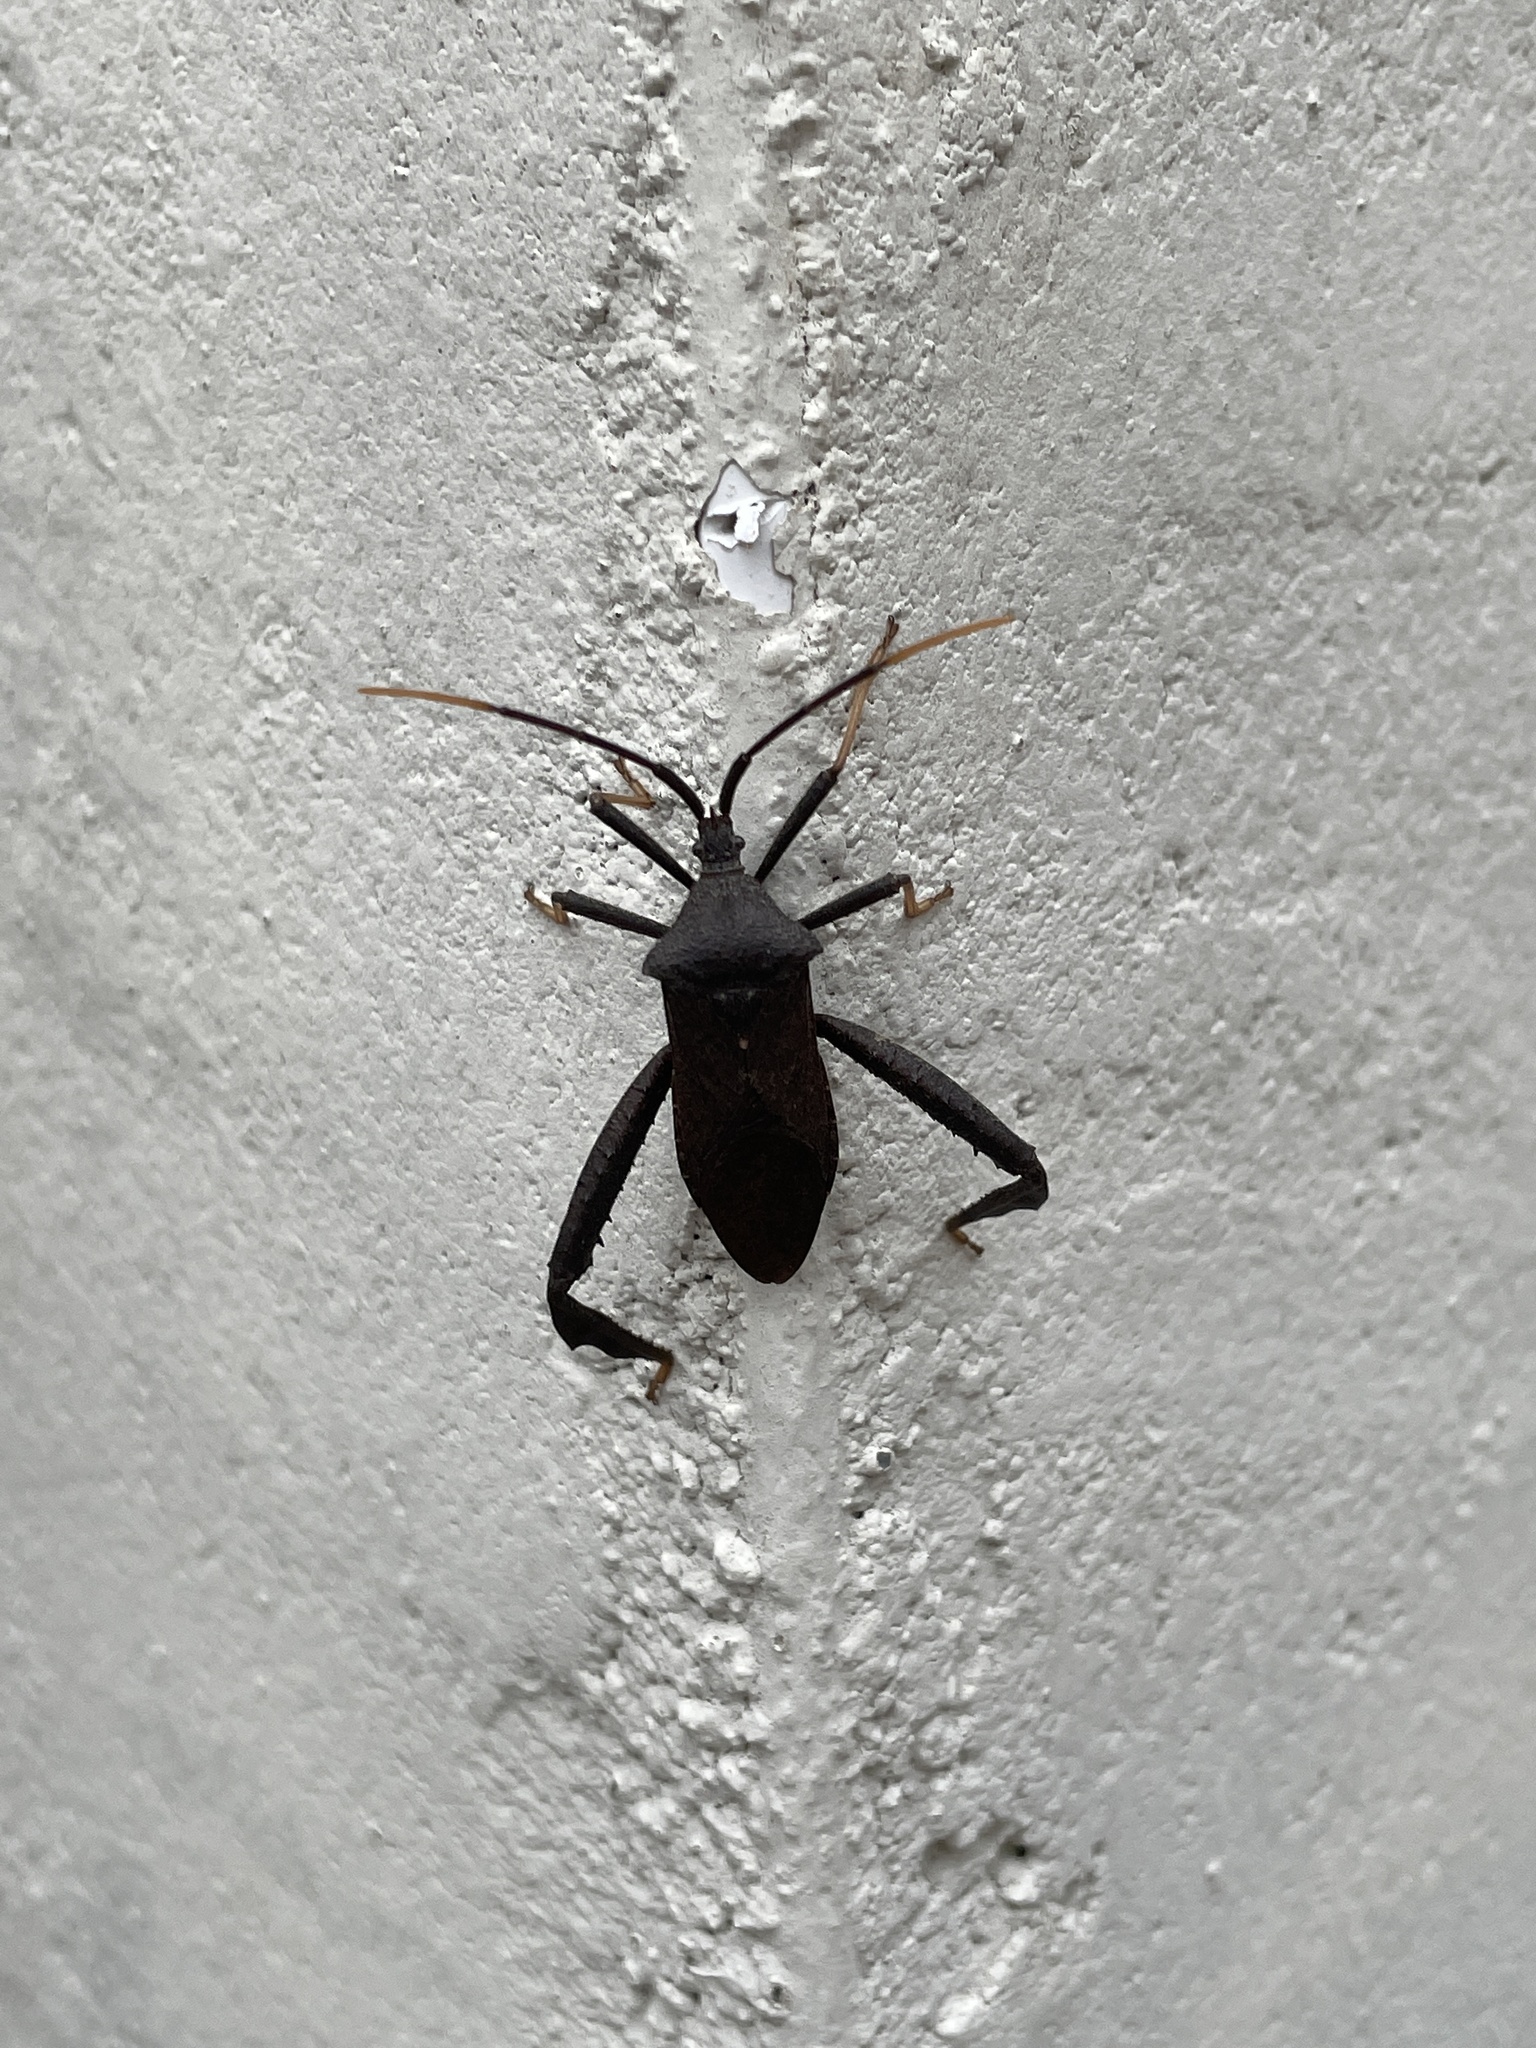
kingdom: Animalia
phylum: Arthropoda
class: Insecta
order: Hemiptera
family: Coreidae
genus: Acanthocephala
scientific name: Acanthocephala terminalis
